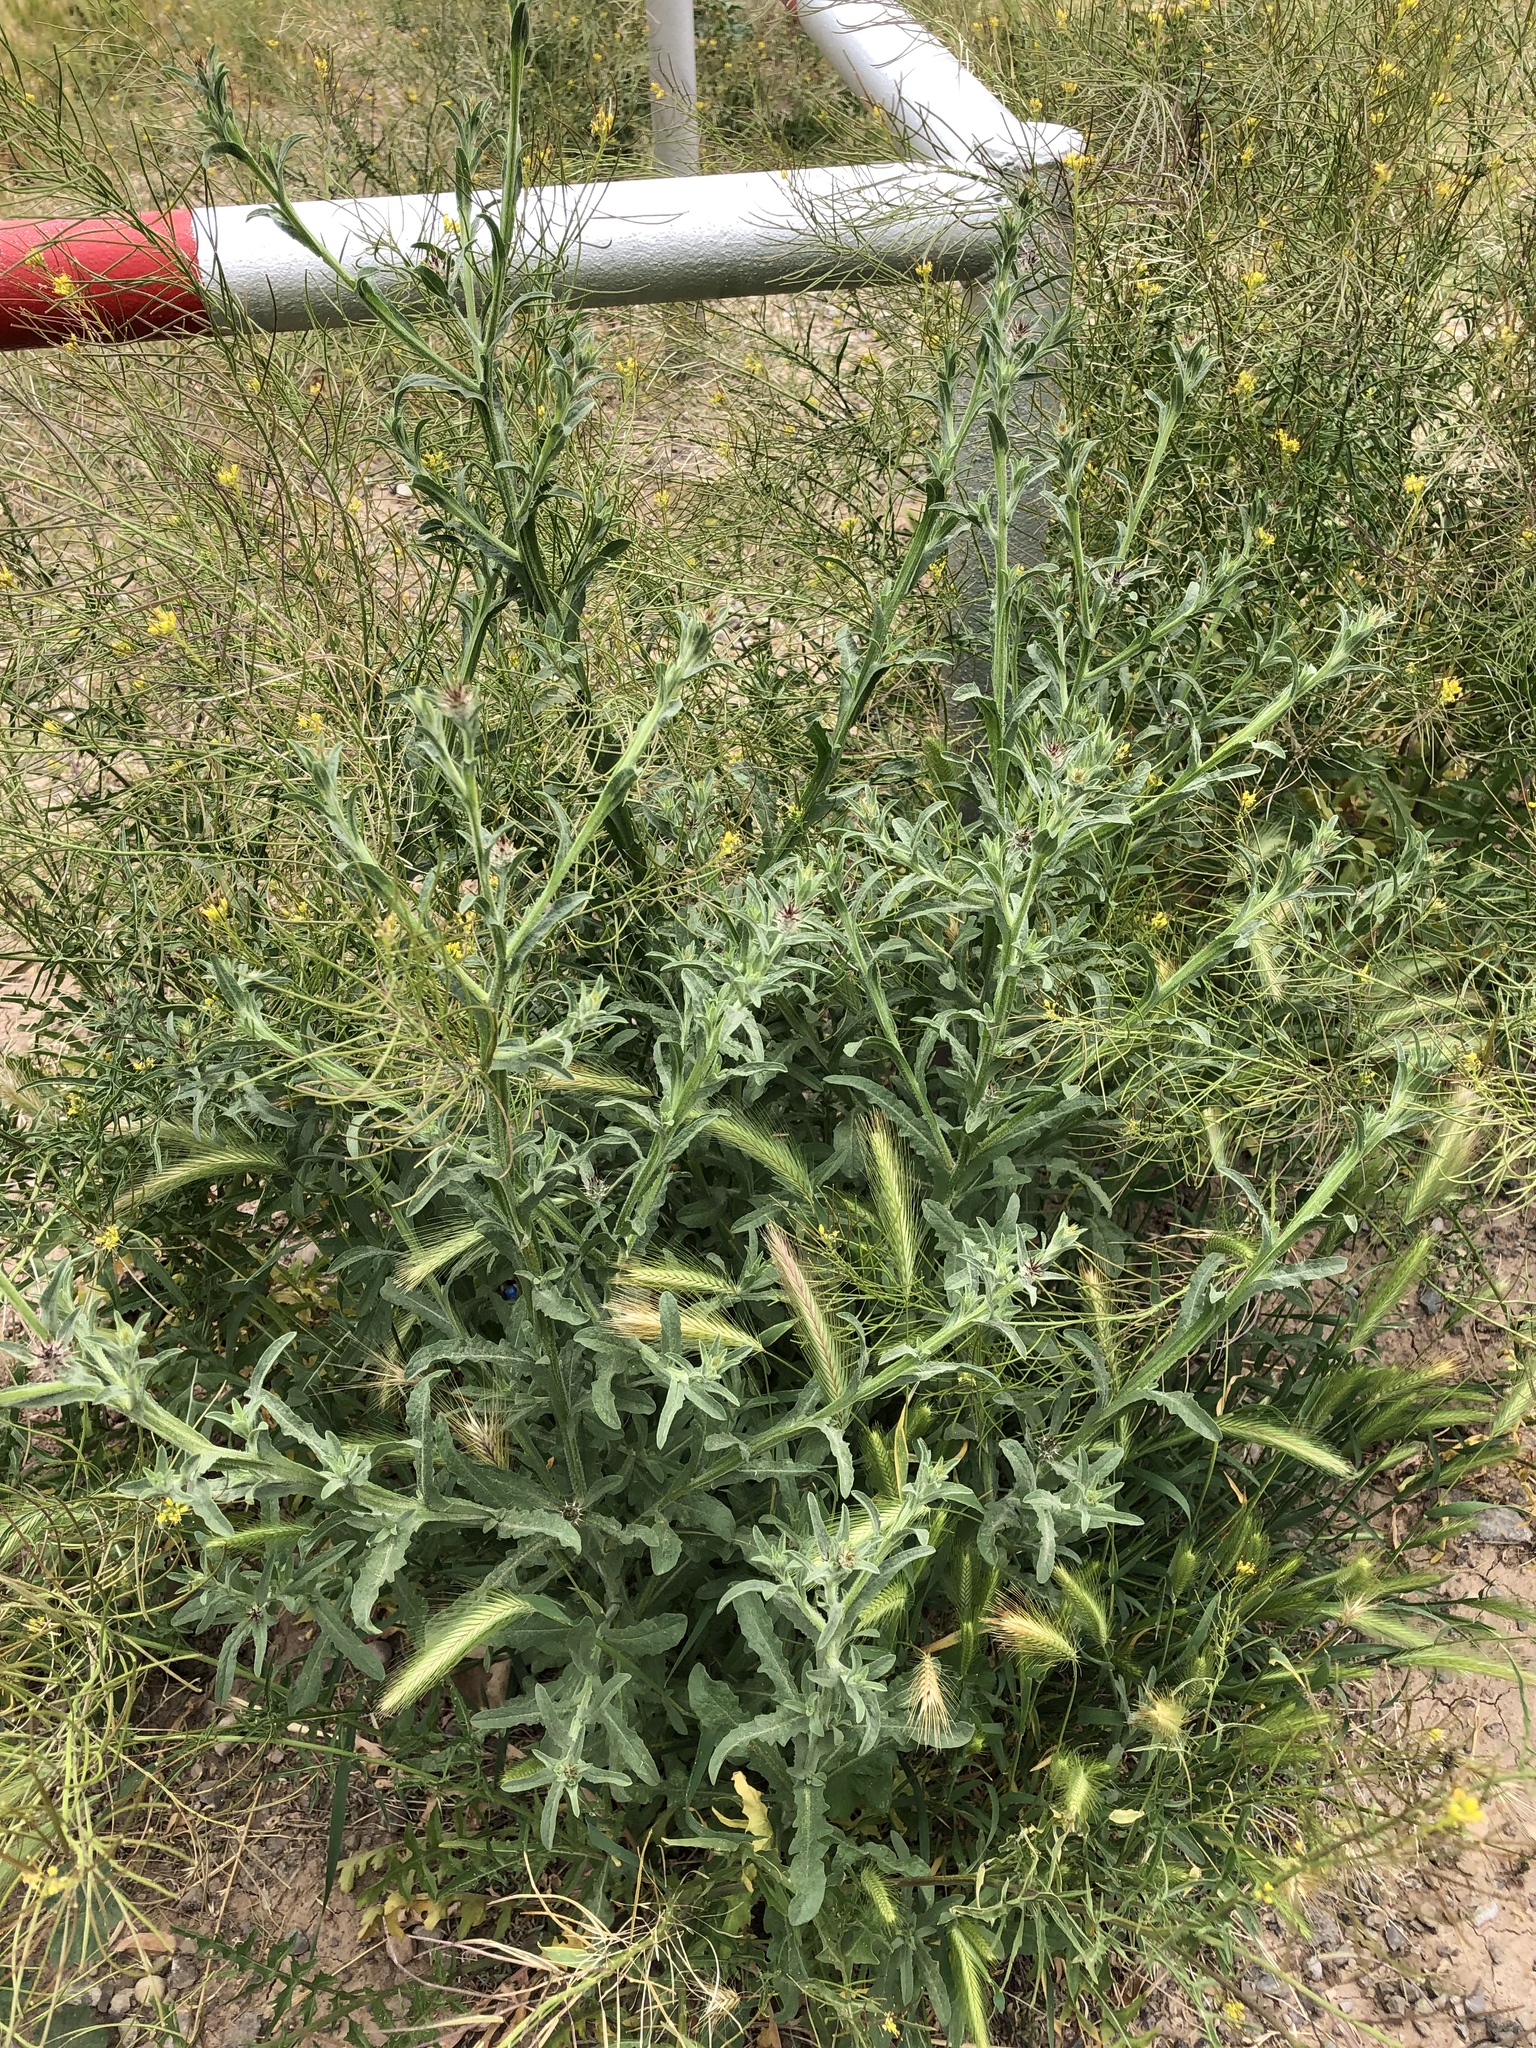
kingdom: Plantae
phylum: Tracheophyta
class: Magnoliopsida
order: Asterales
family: Asteraceae
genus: Centaurea
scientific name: Centaurea melitensis
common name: Maltese star-thistle
